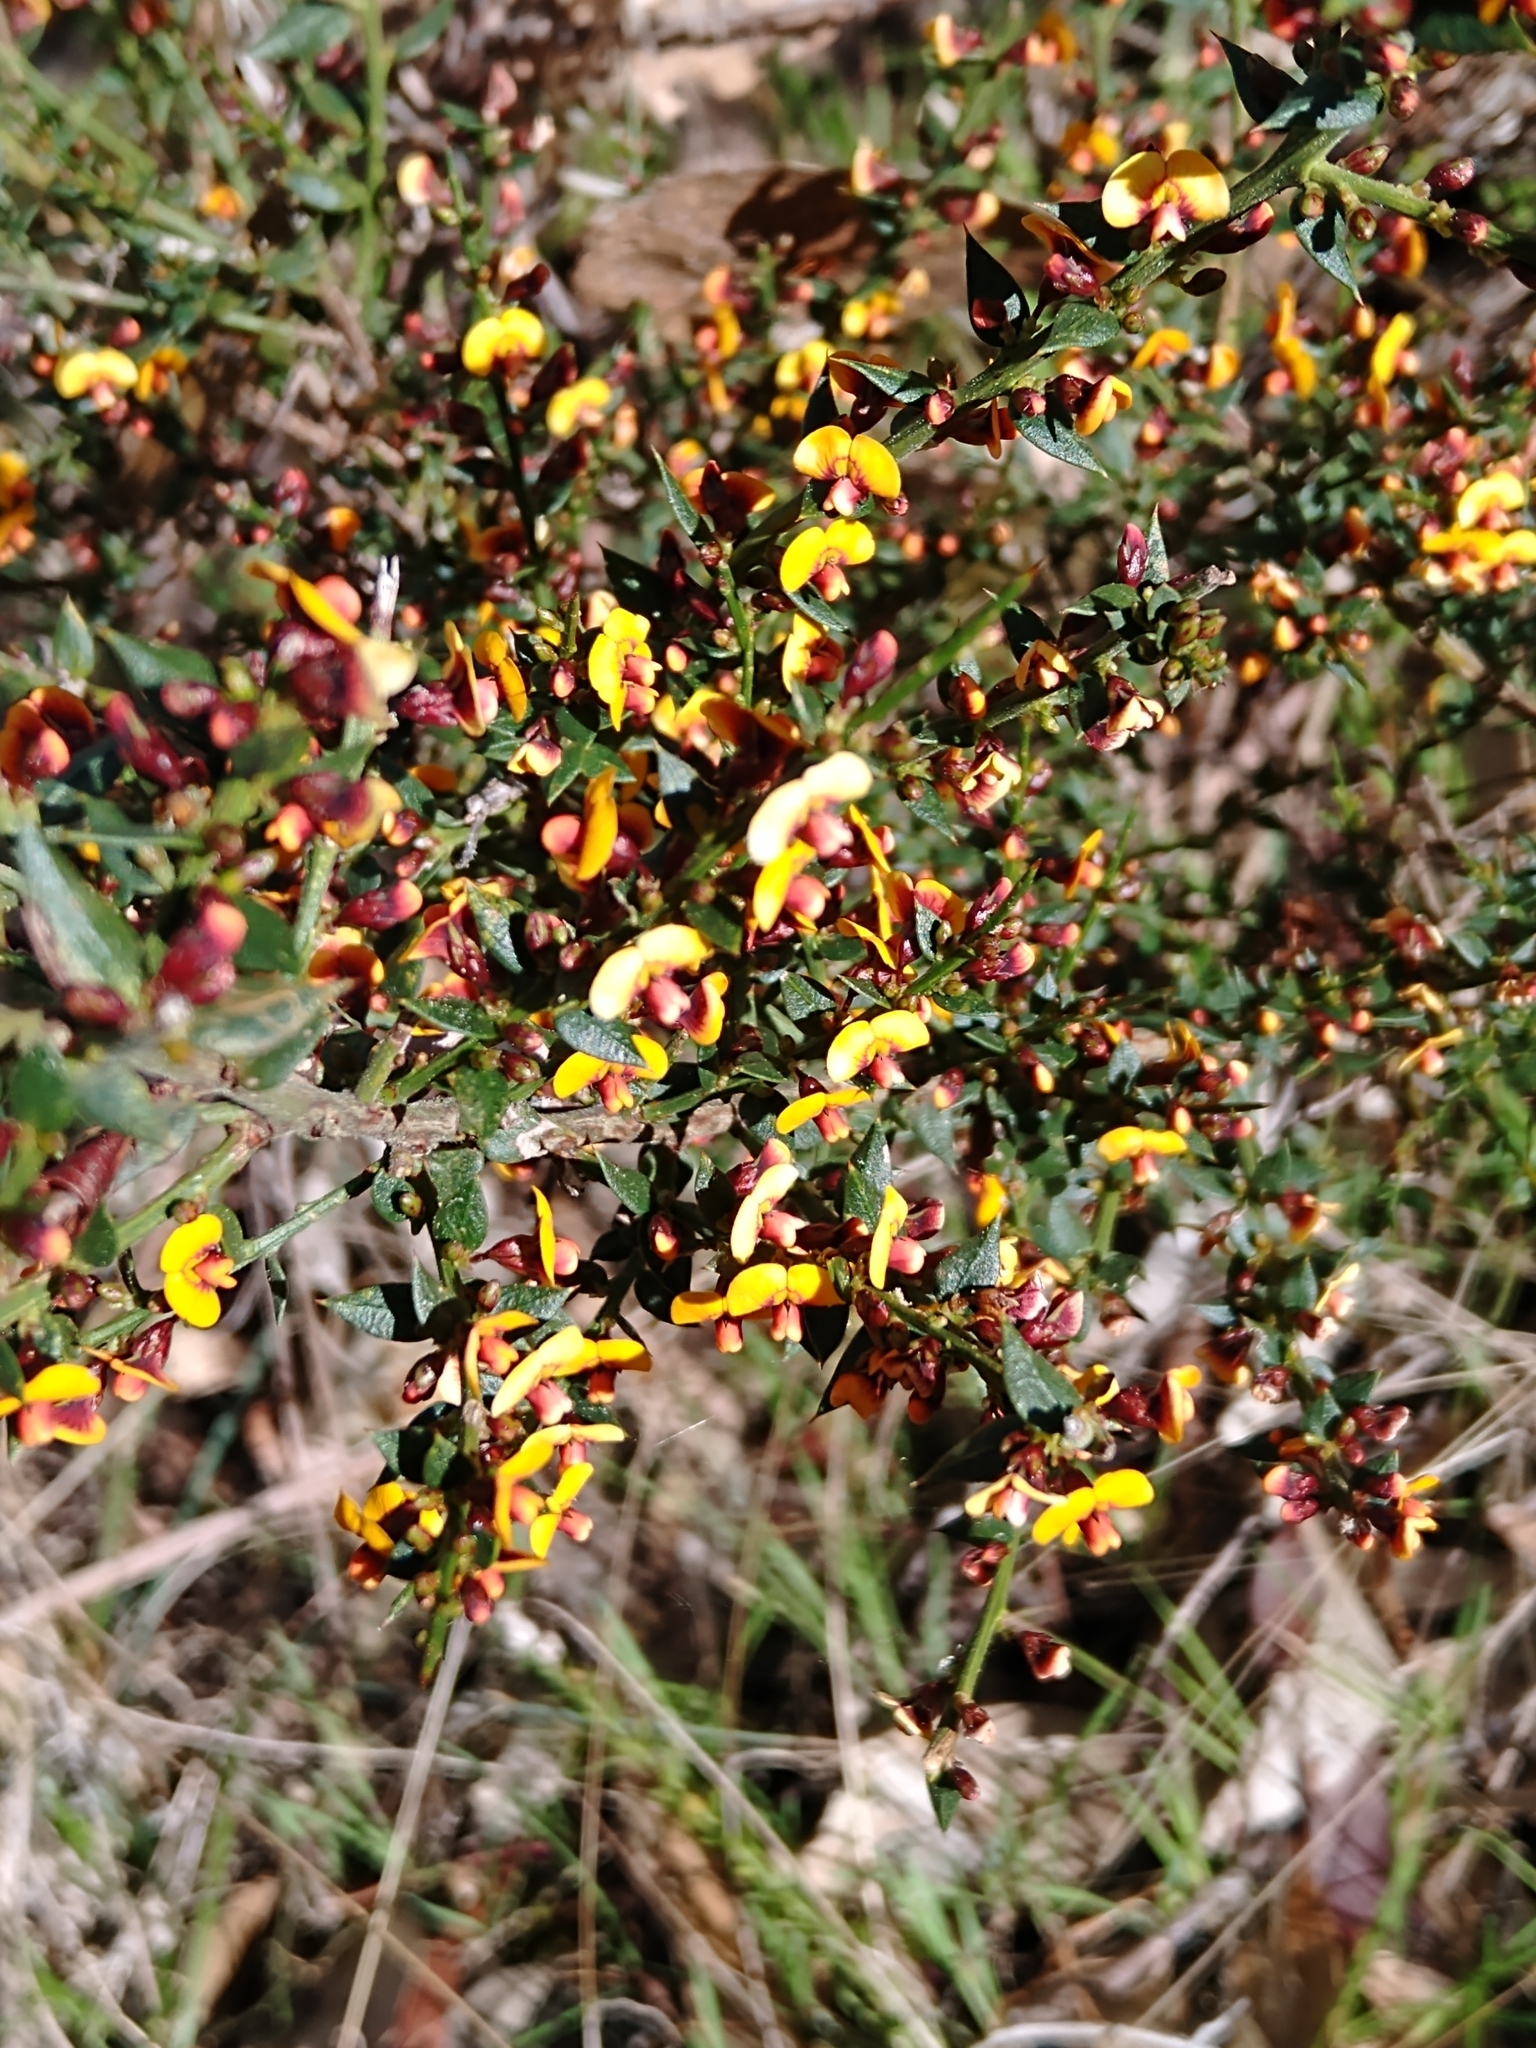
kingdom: Plantae
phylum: Tracheophyta
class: Magnoliopsida
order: Fabales
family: Fabaceae
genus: Daviesia
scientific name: Daviesia ulicifolia
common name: Gorse bitter-pea
